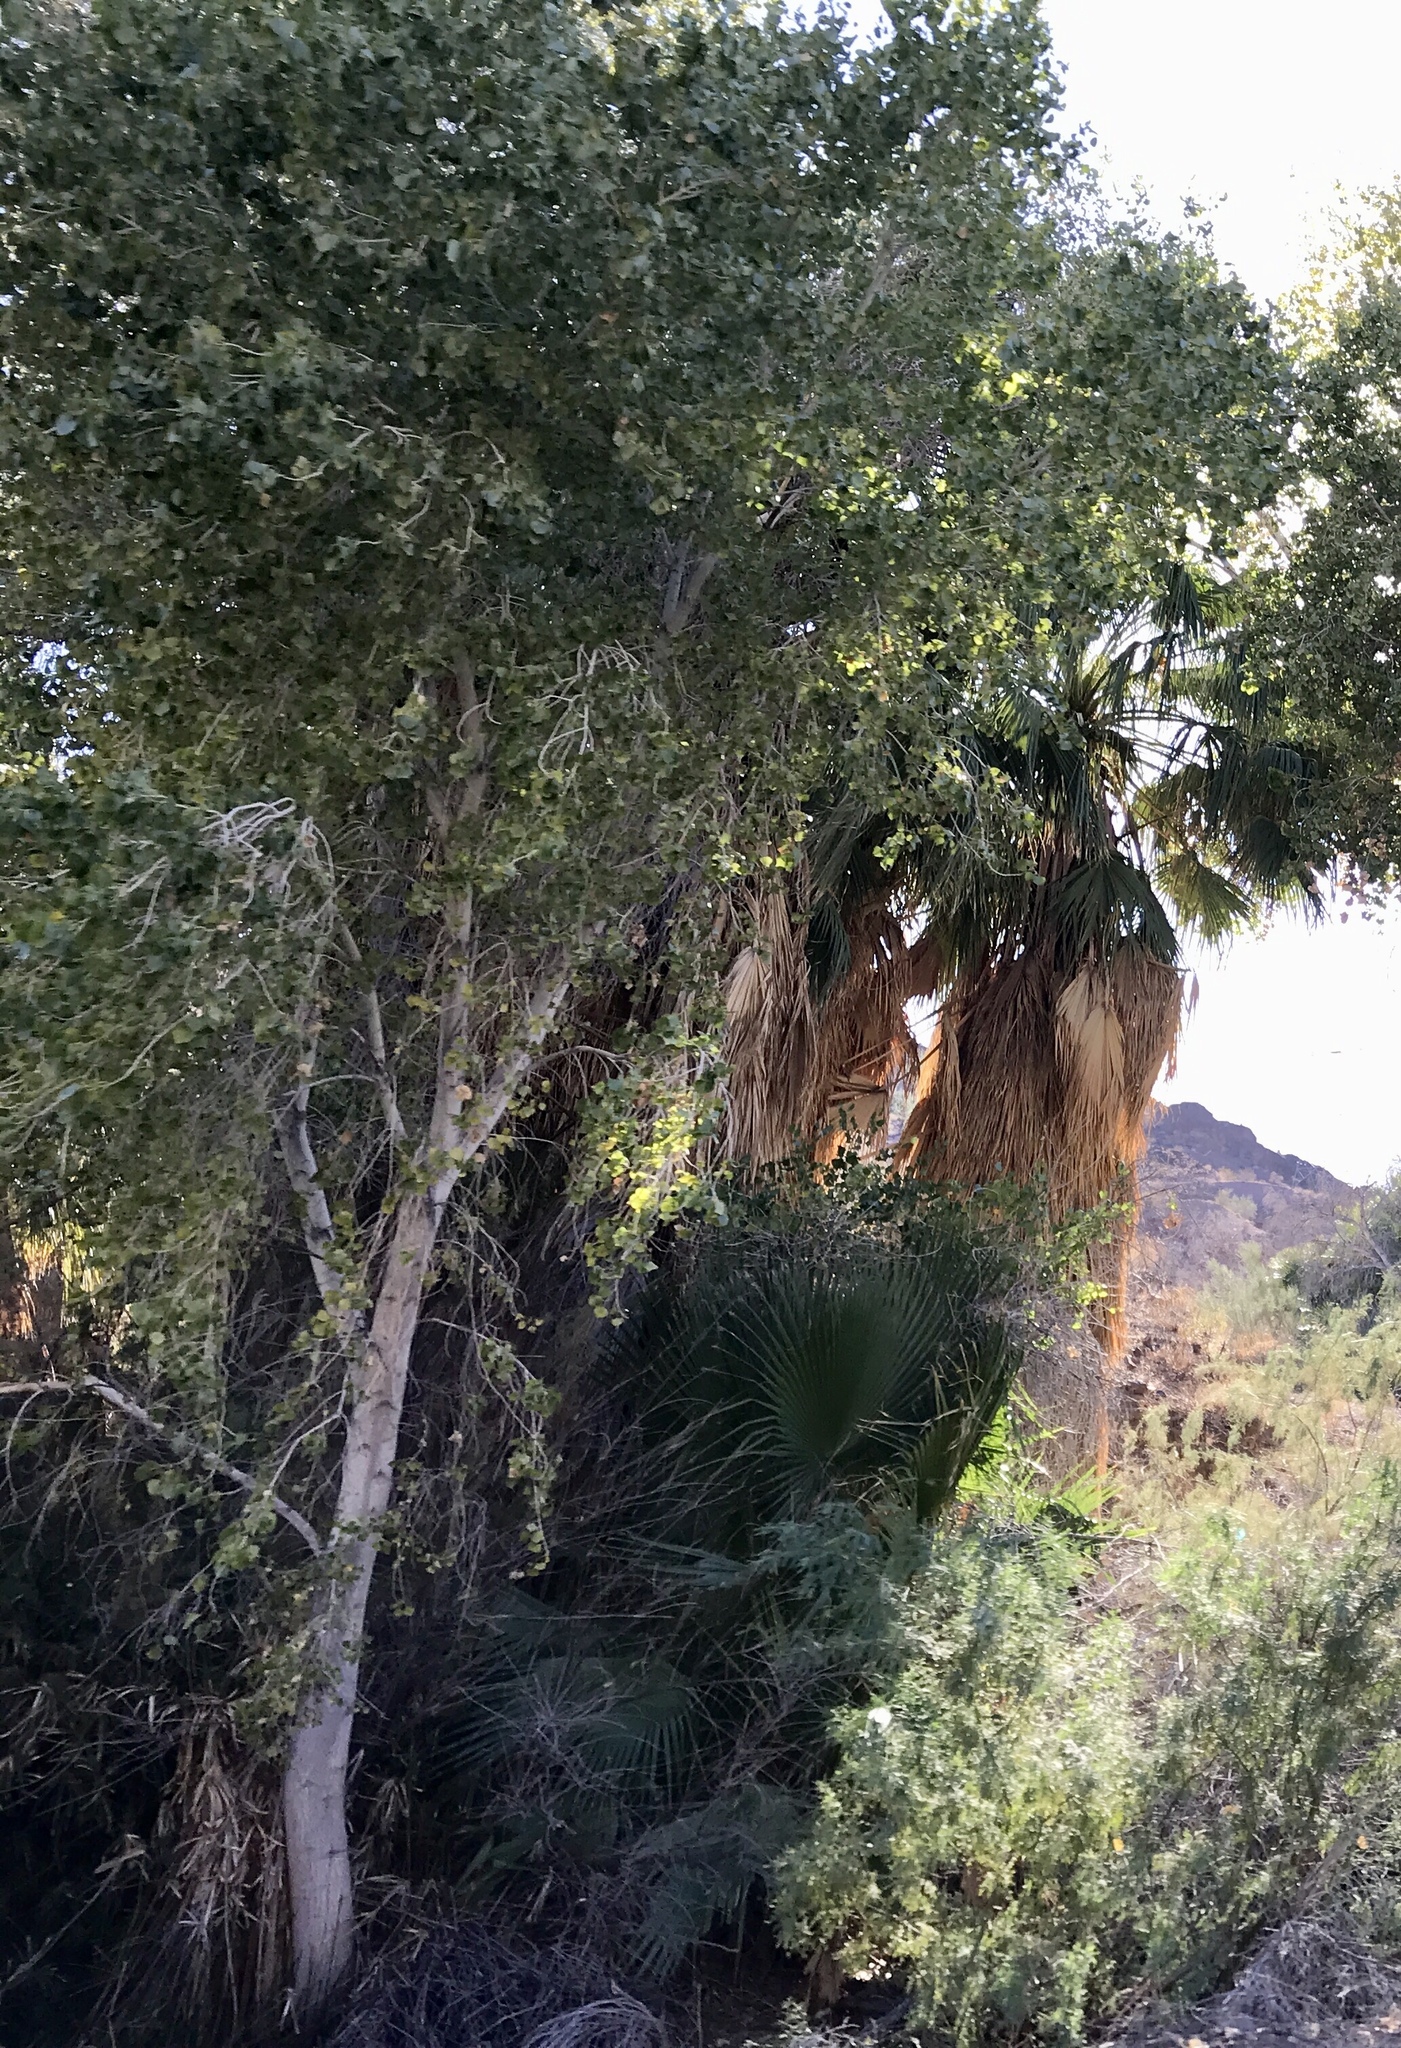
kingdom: Plantae
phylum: Tracheophyta
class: Magnoliopsida
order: Malpighiales
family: Salicaceae
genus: Populus
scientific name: Populus fremontii
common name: Fremont's cottonwood
